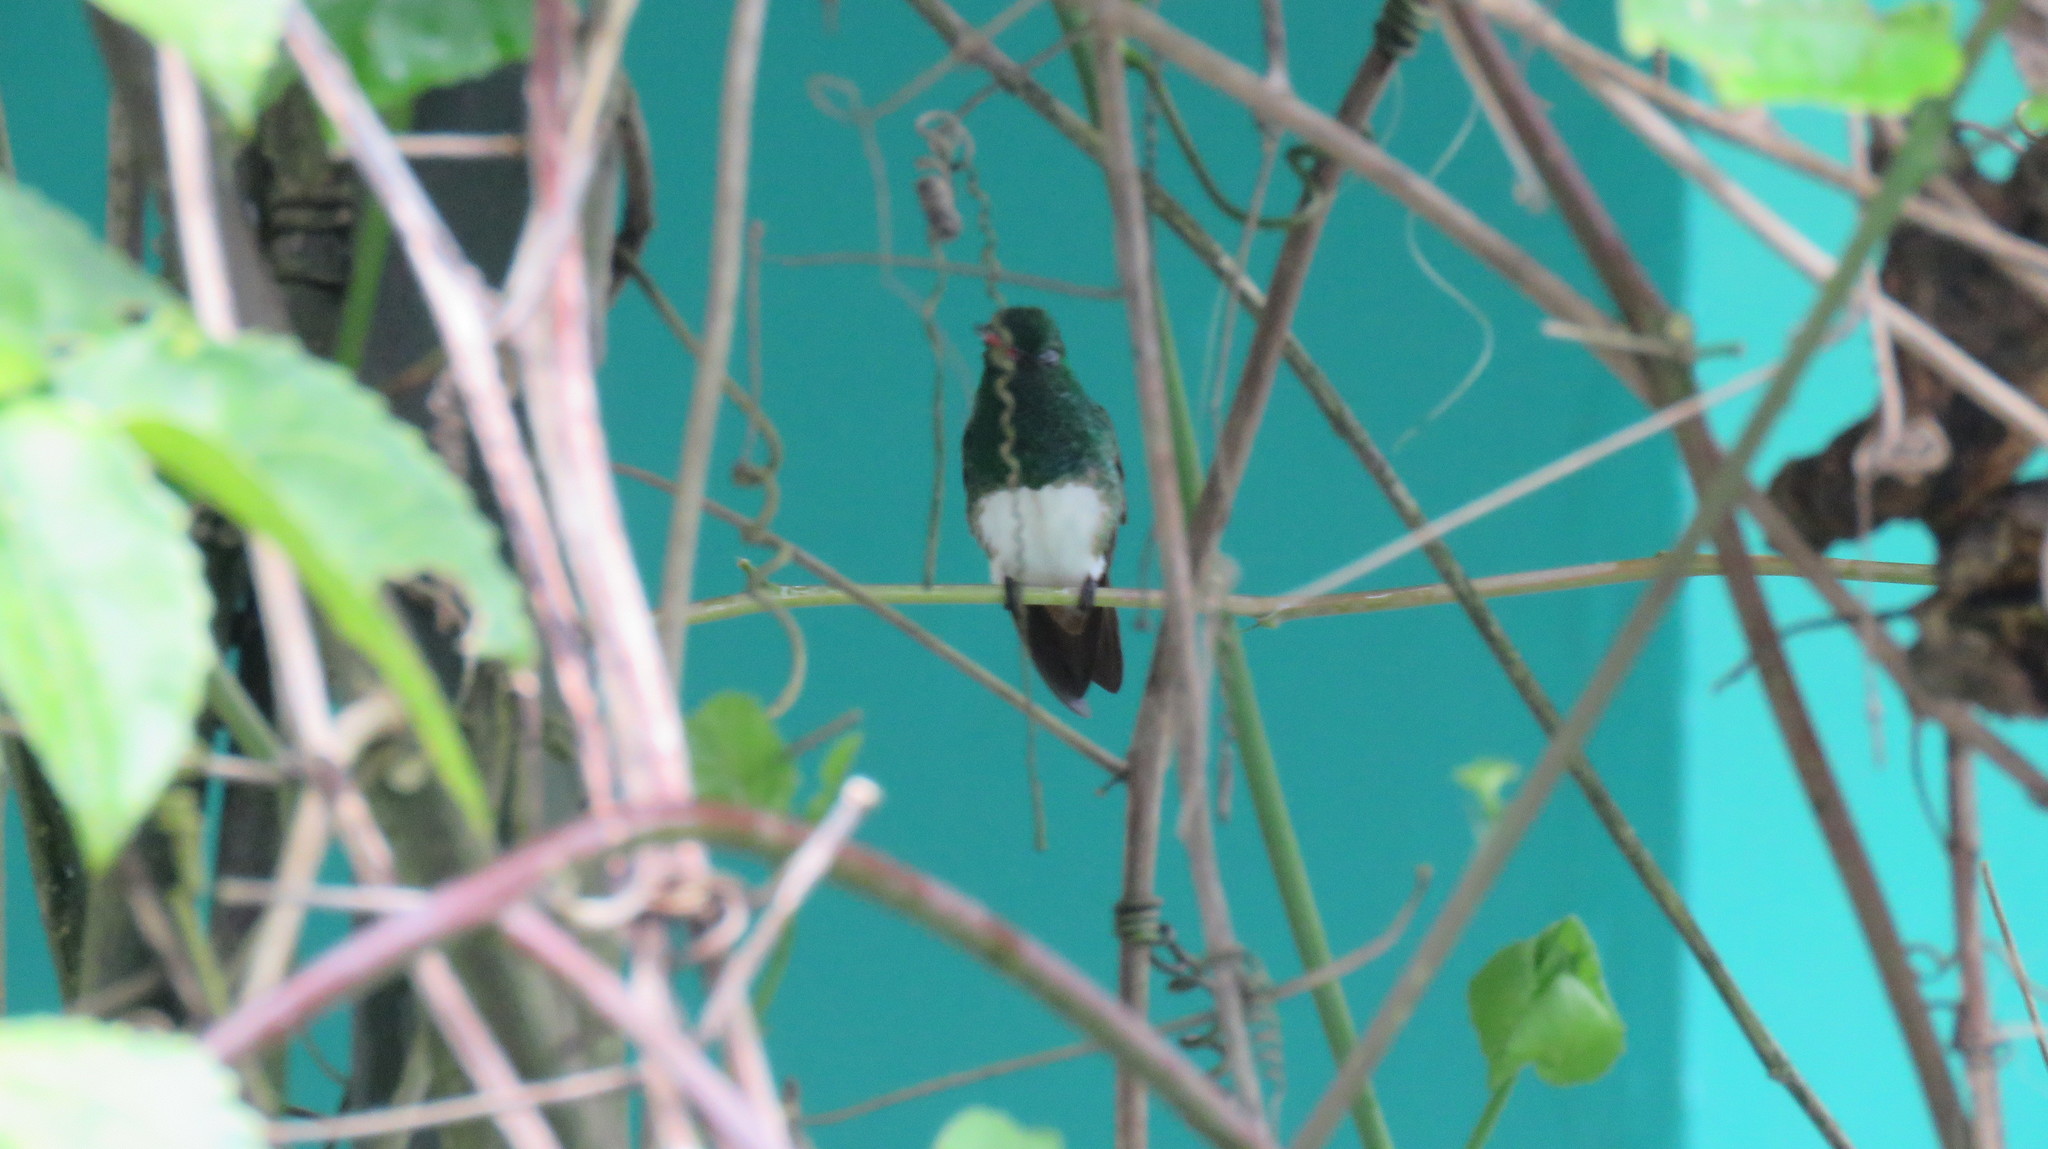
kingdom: Animalia
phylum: Chordata
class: Aves
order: Apodiformes
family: Trochilidae
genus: Saucerottia
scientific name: Saucerottia edward
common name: Snowy-bellied hummingbird
